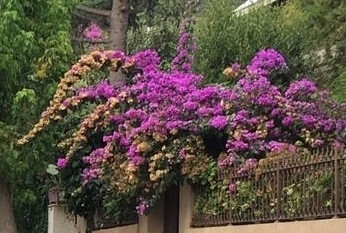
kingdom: Plantae
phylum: Tracheophyta
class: Magnoliopsida
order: Fabales
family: Fabaceae
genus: Cercis
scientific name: Cercis siliquastrum
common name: Judas tree
